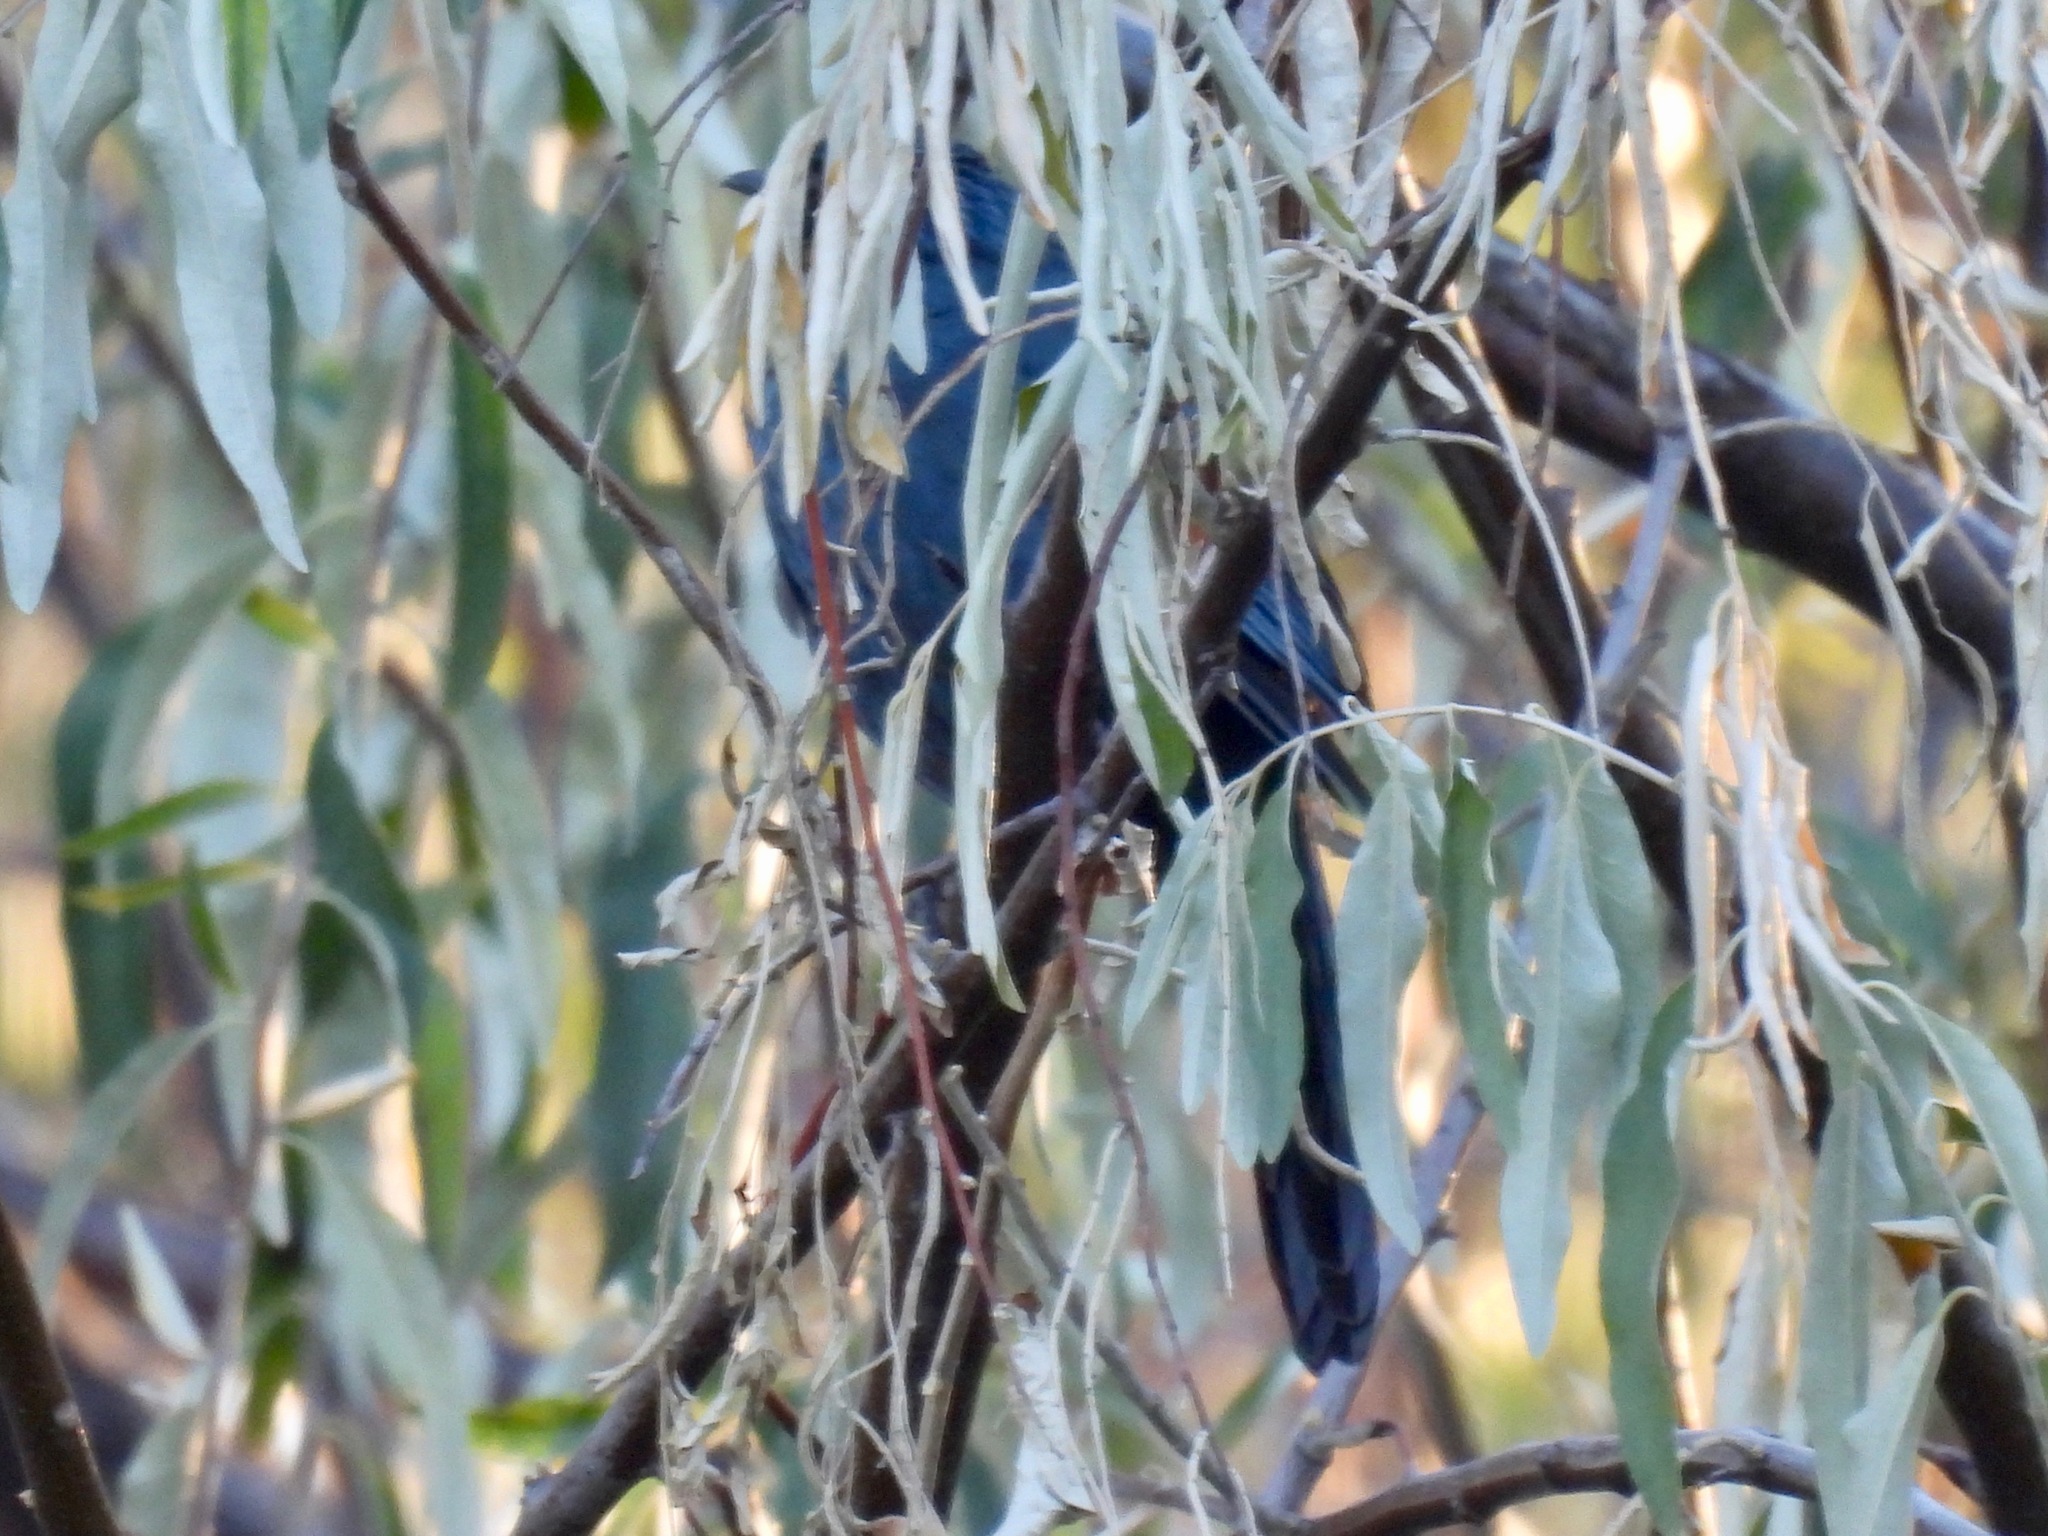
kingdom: Animalia
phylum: Chordata
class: Aves
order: Passeriformes
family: Mimidae
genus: Melanotis
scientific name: Melanotis caerulescens
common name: Blue mockingbird
